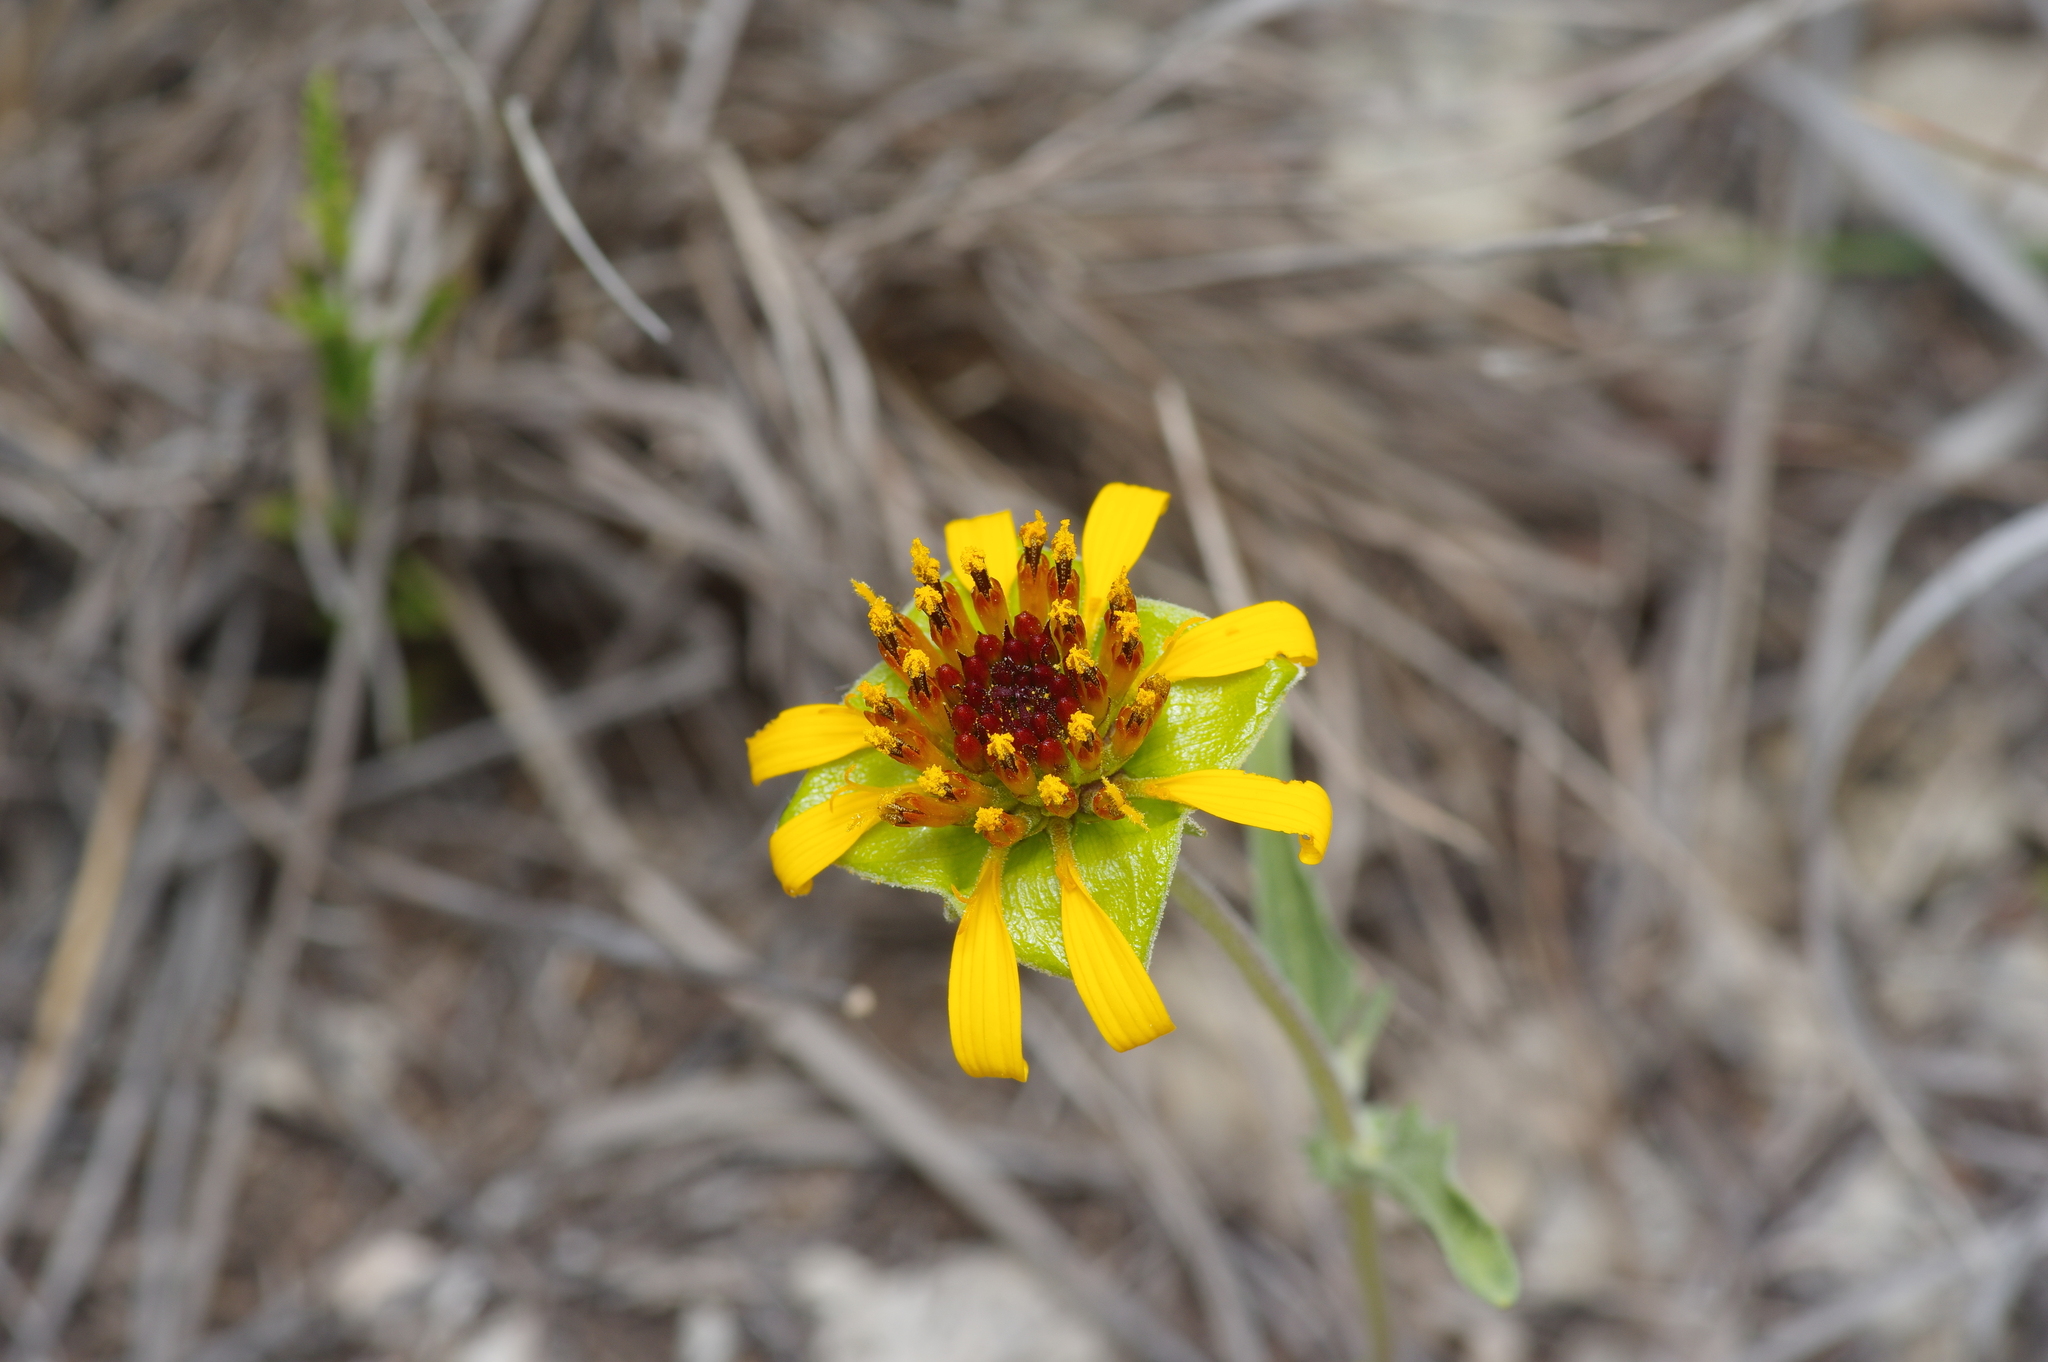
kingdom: Plantae
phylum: Tracheophyta
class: Magnoliopsida
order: Asterales
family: Asteraceae
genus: Tetragonotheca
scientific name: Tetragonotheca texana
